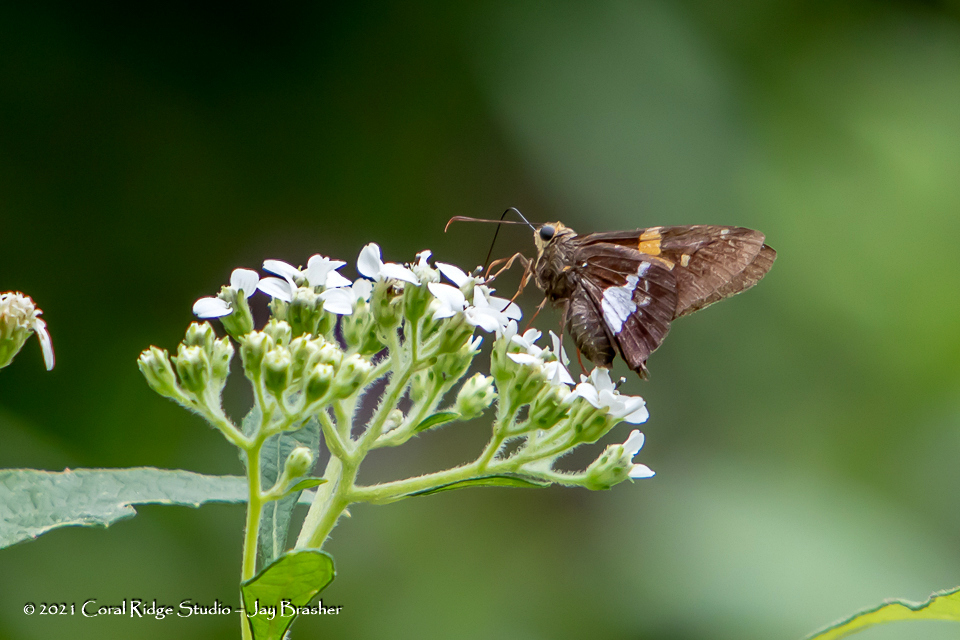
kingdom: Animalia
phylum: Arthropoda
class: Insecta
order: Lepidoptera
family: Hesperiidae
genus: Epargyreus
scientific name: Epargyreus clarus
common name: Silver-spotted skipper
